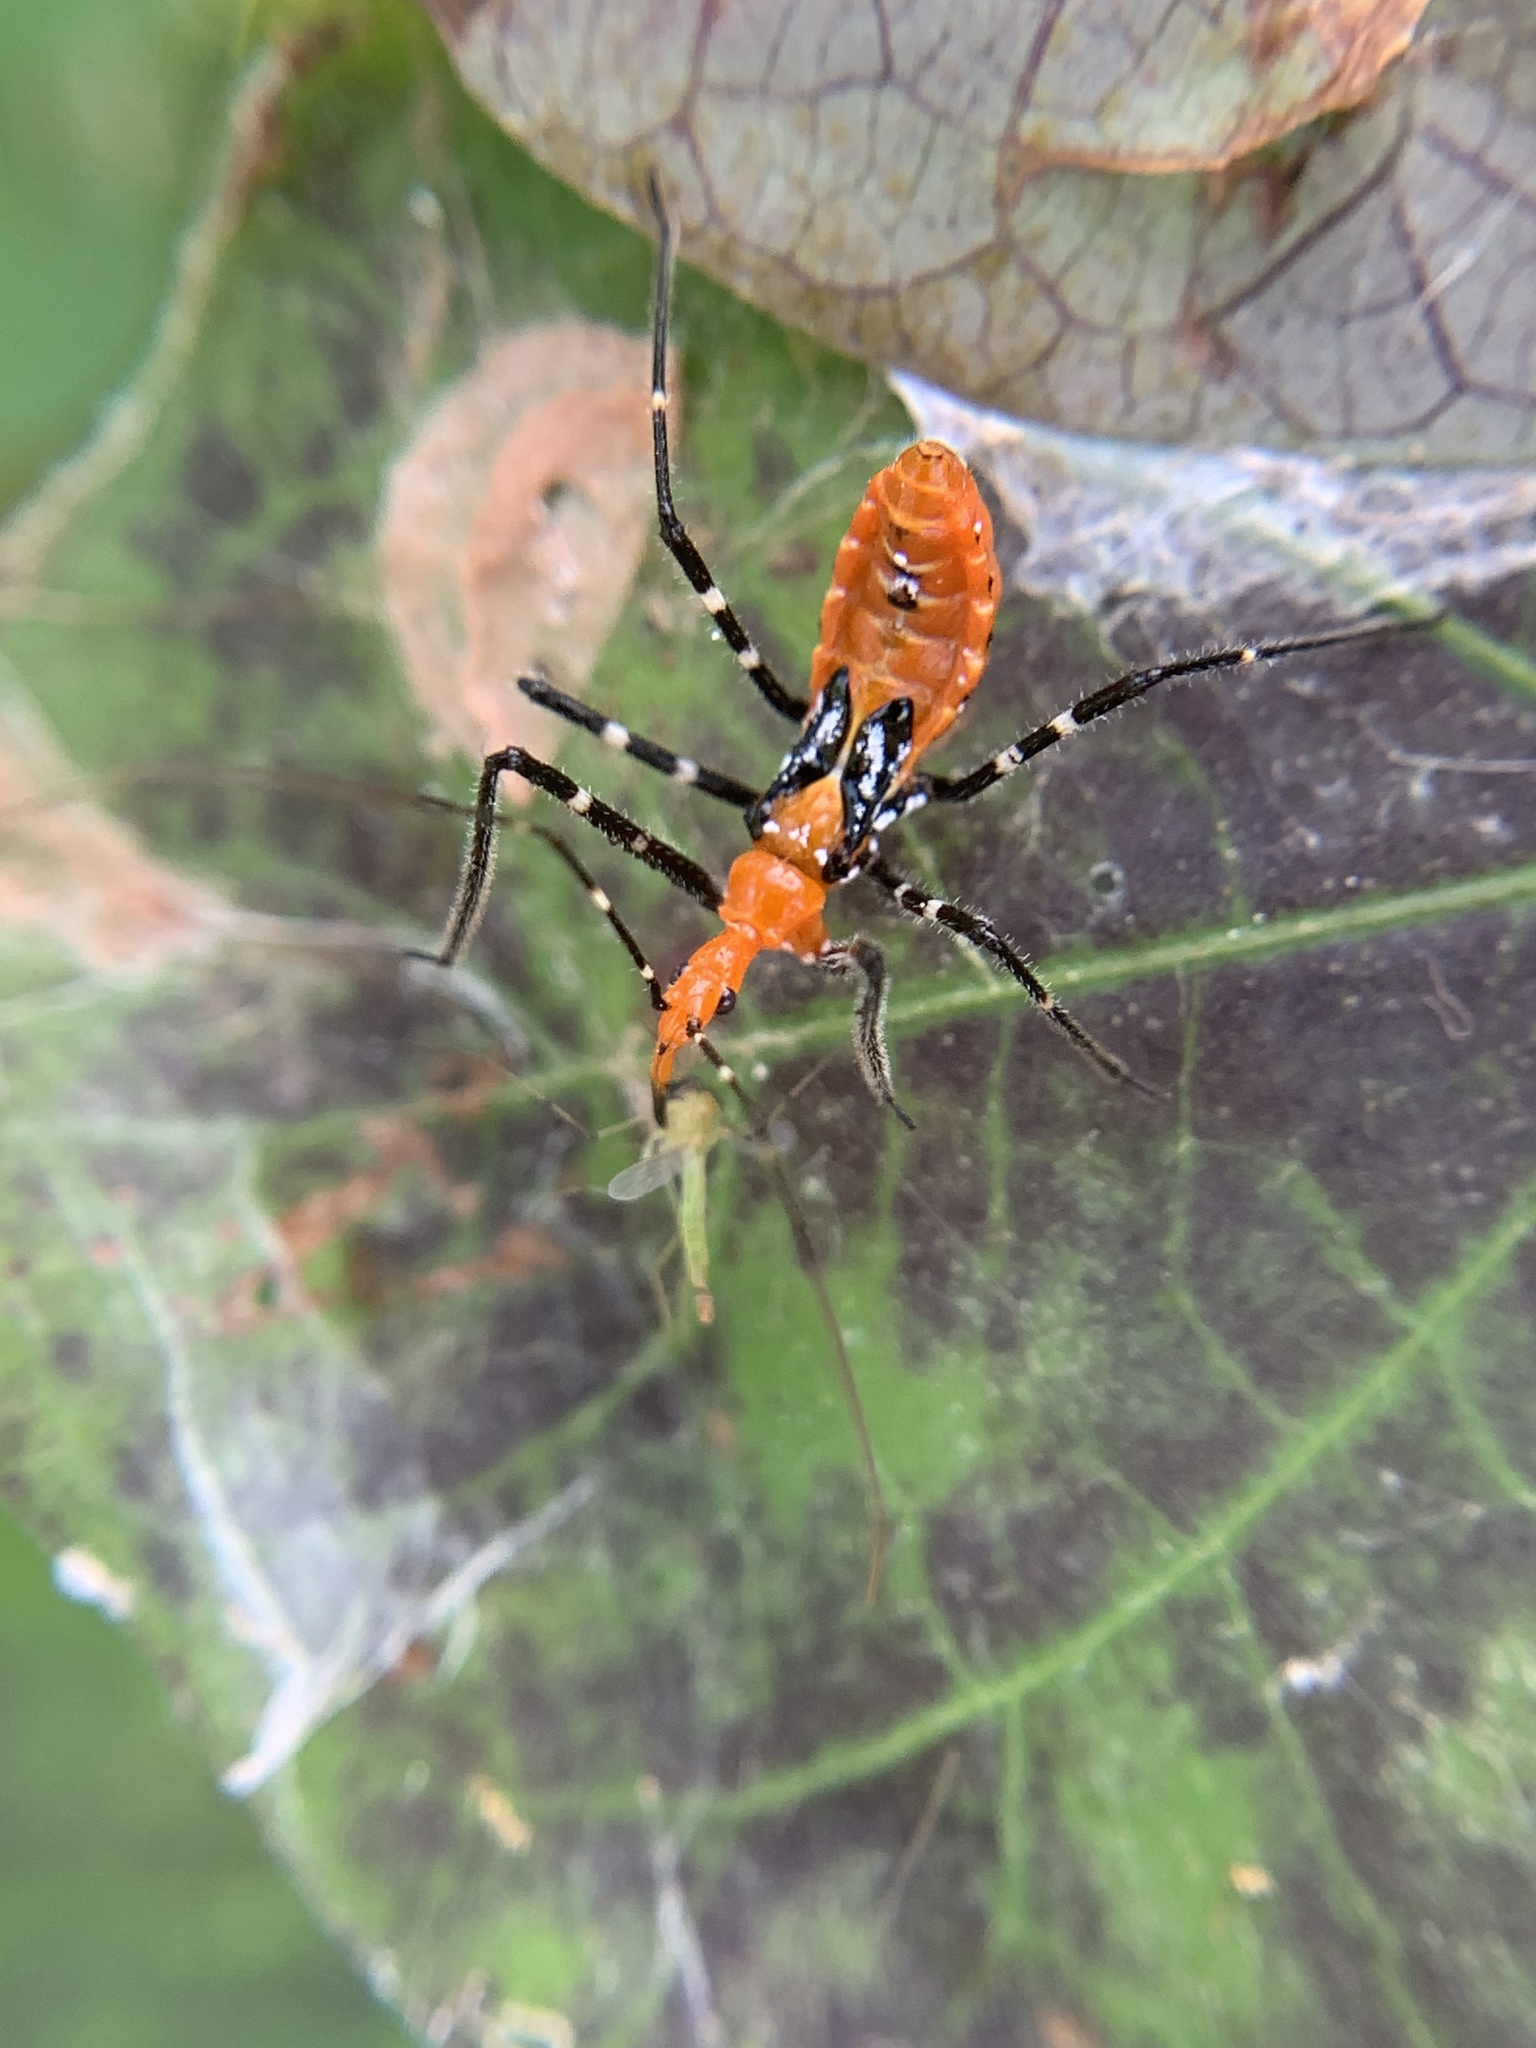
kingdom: Animalia
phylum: Arthropoda
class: Insecta
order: Hemiptera
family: Reduviidae
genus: Zelus
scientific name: Zelus longipes
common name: Milkweed assassin bug
